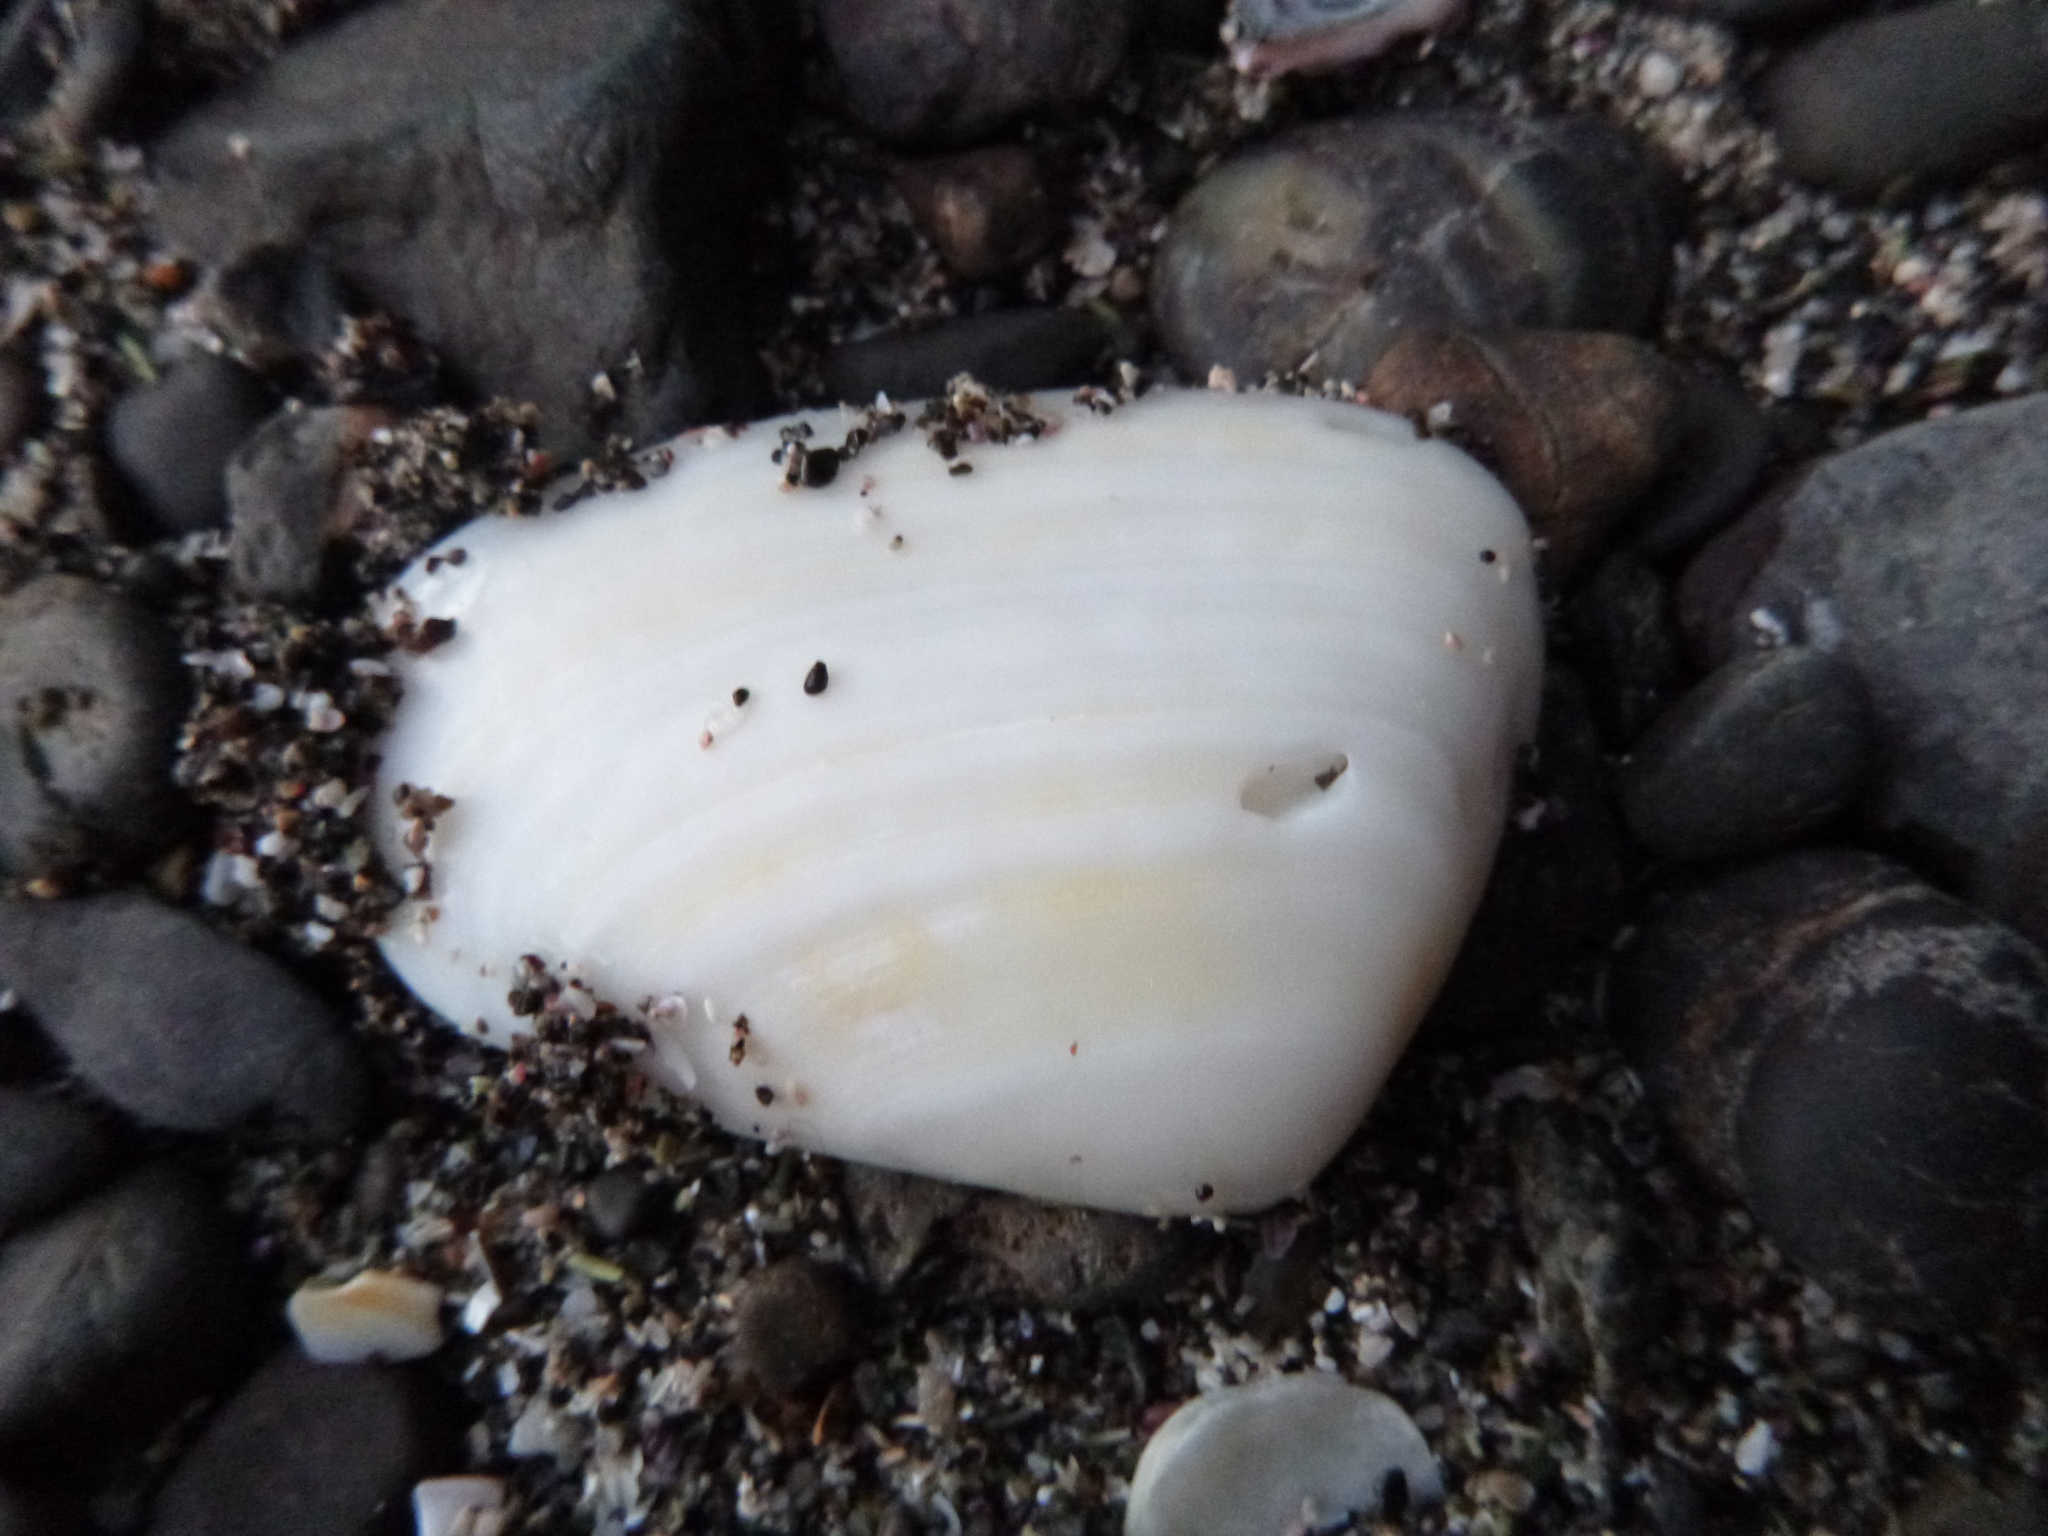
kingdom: Animalia
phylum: Mollusca
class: Bivalvia
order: Venerida
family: Mesodesmatidae
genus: Paphies
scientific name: Paphies subtriangulata
